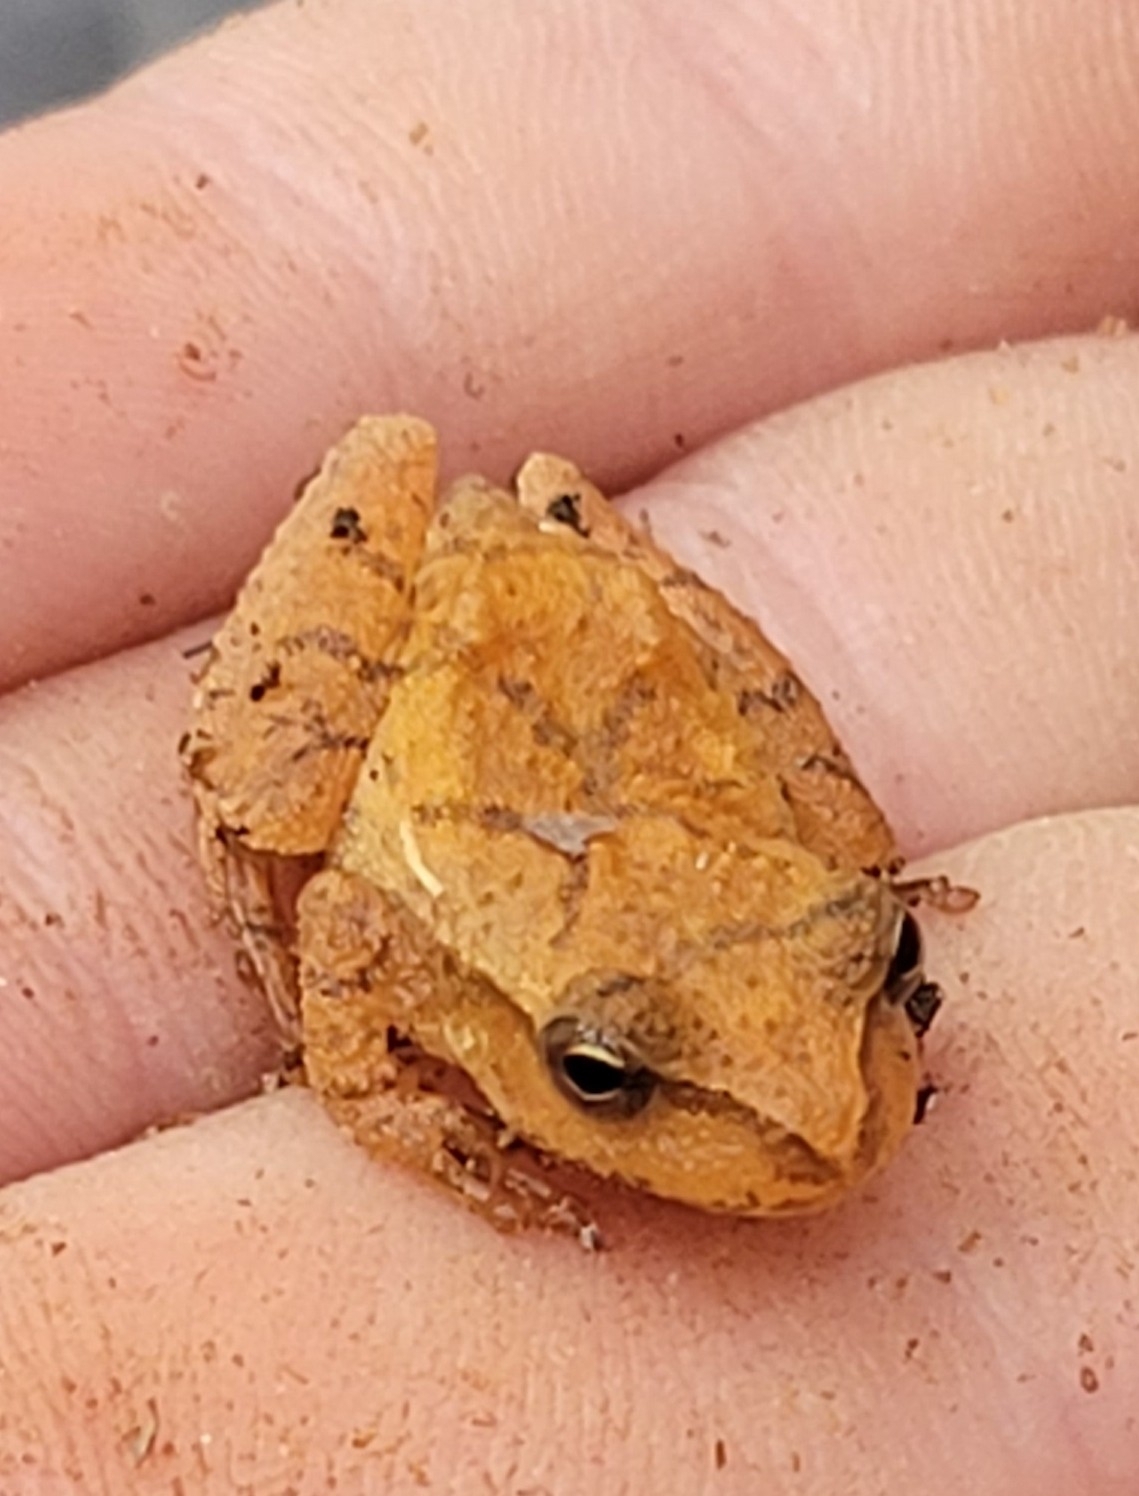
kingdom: Animalia
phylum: Chordata
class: Amphibia
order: Anura
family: Hylidae
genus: Pseudacris
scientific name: Pseudacris crucifer
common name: Spring peeper
